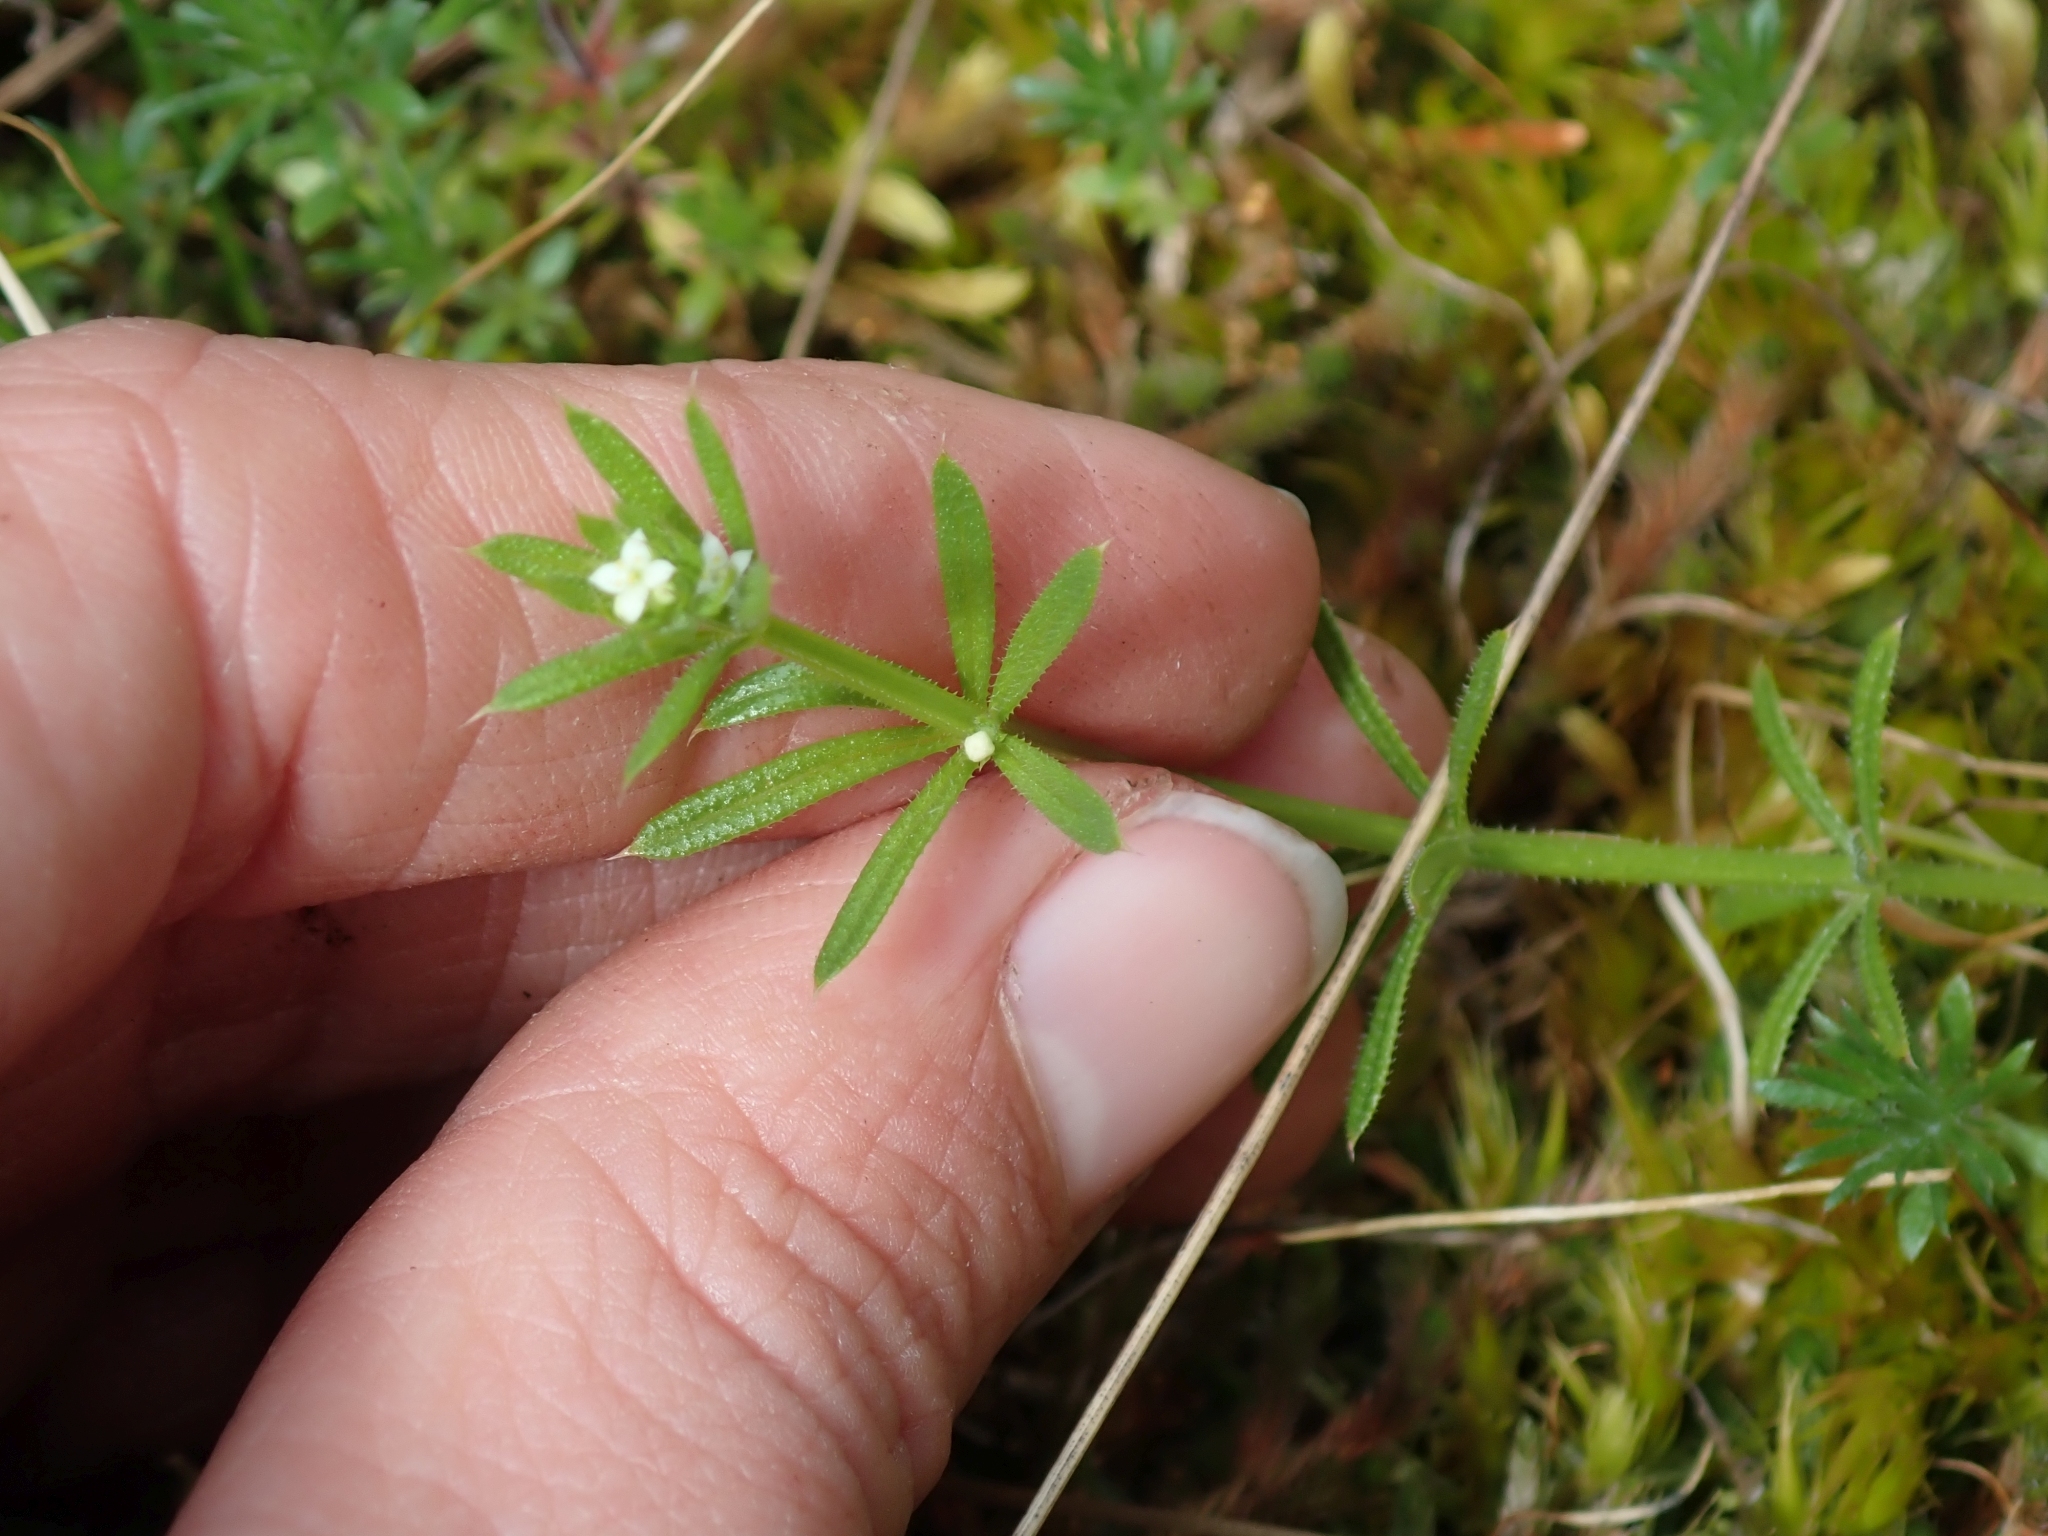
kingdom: Plantae
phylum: Tracheophyta
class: Magnoliopsida
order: Gentianales
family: Rubiaceae
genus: Galium
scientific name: Galium aparine
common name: Cleavers
